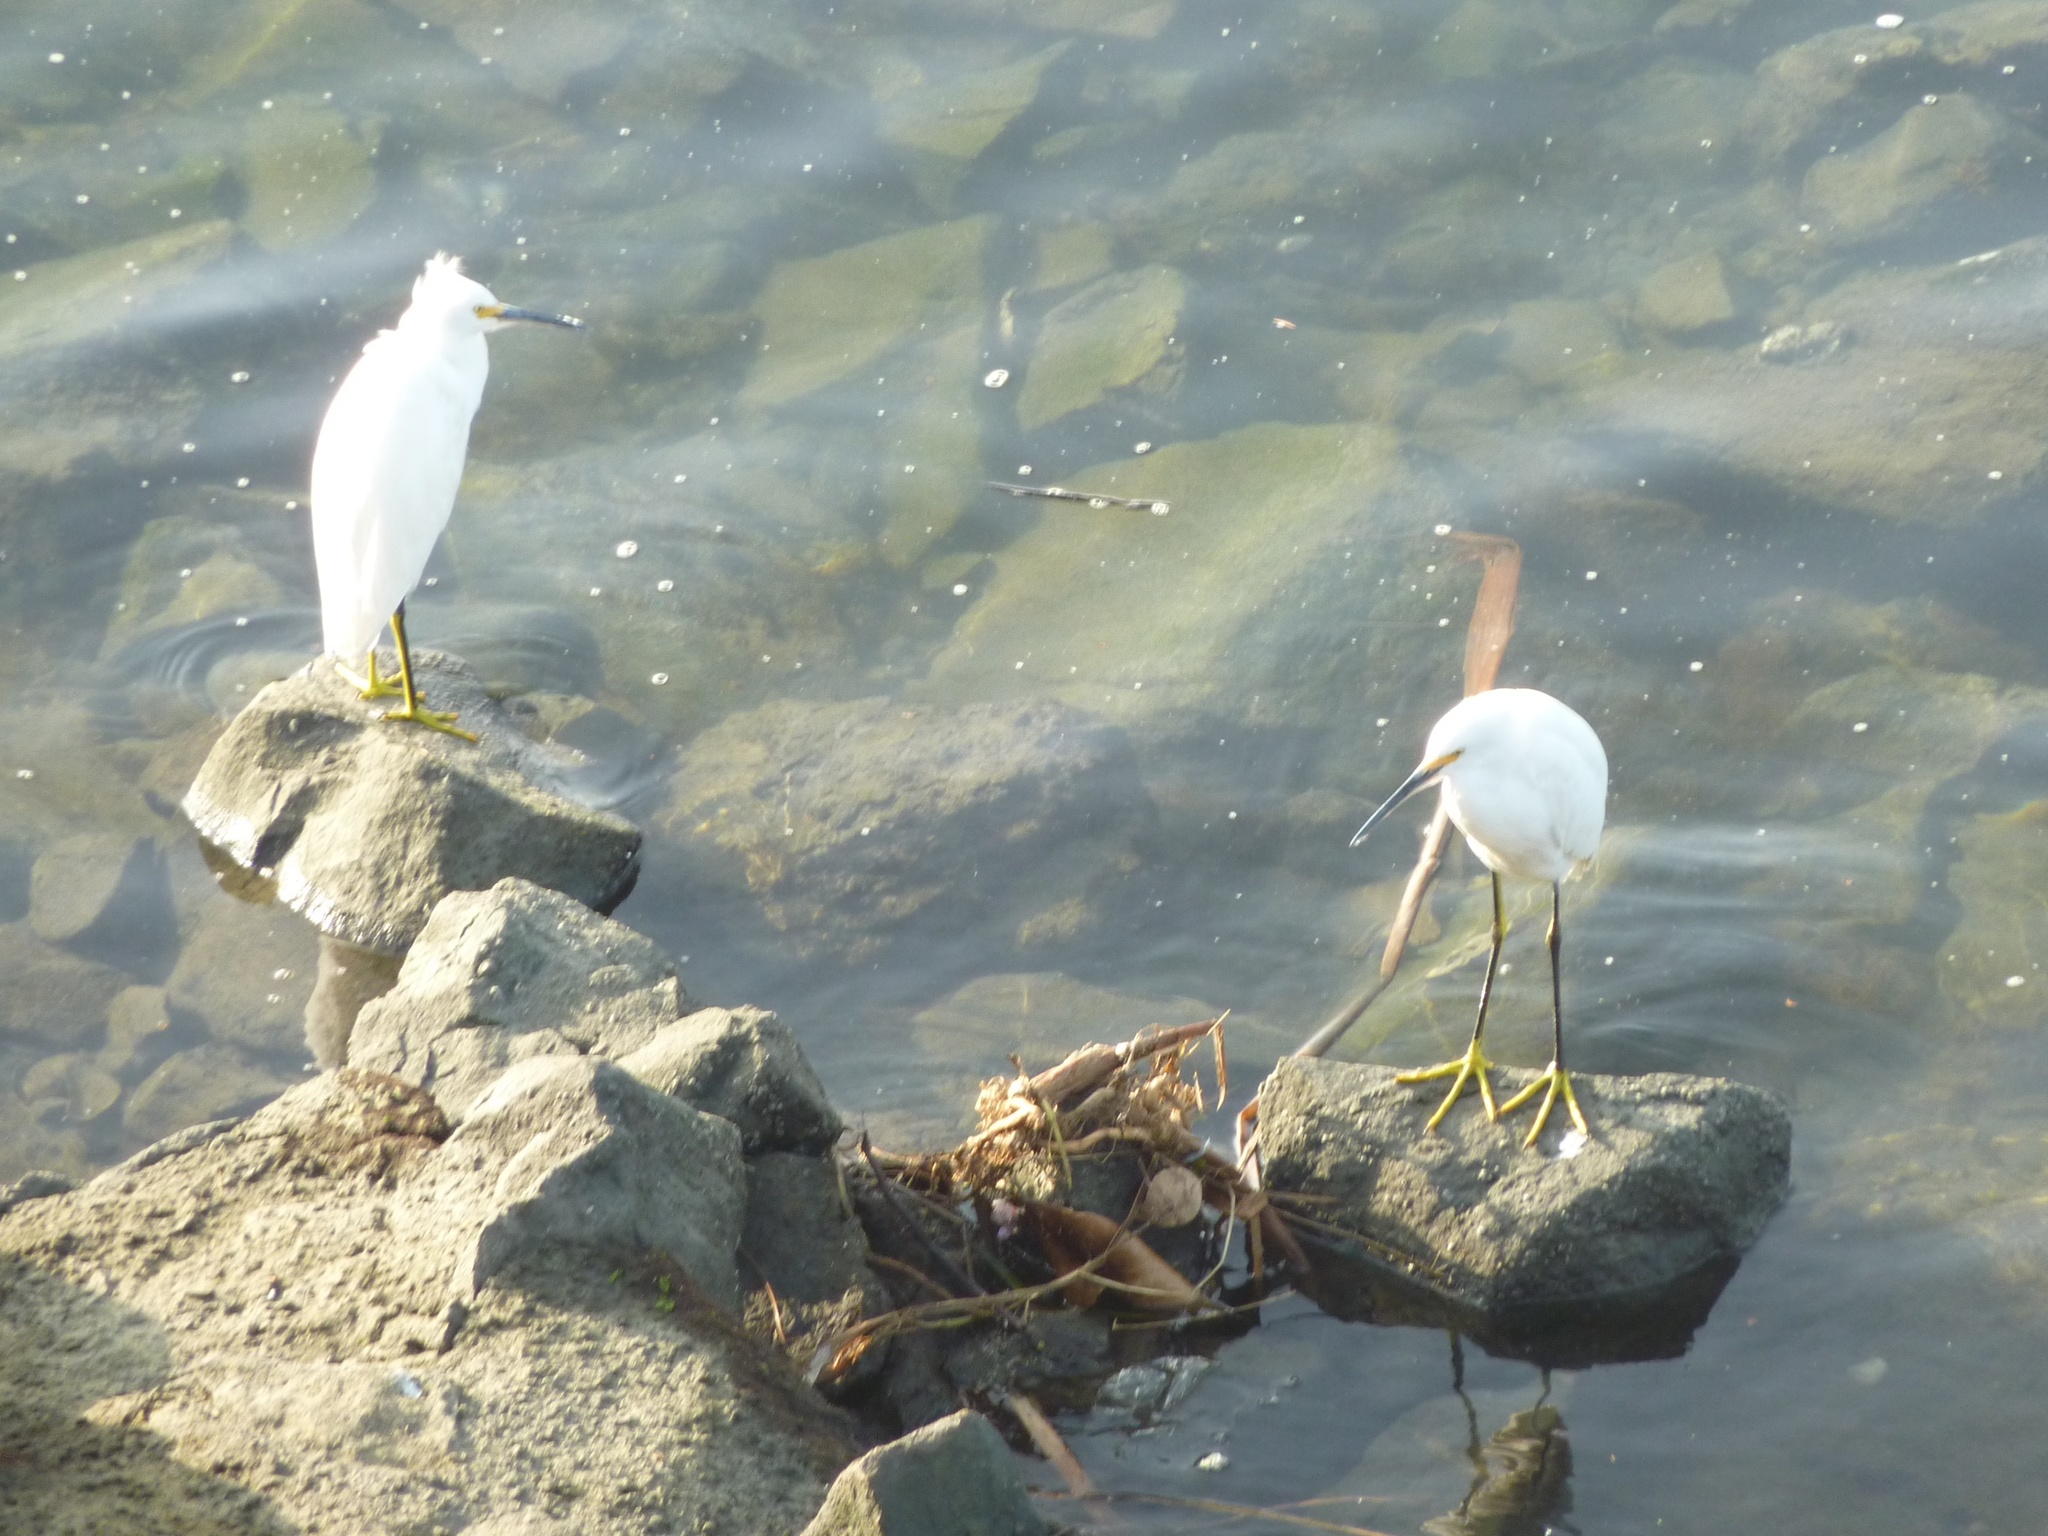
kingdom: Animalia
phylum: Chordata
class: Aves
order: Pelecaniformes
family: Ardeidae
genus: Egretta
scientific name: Egretta thula
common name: Snowy egret
